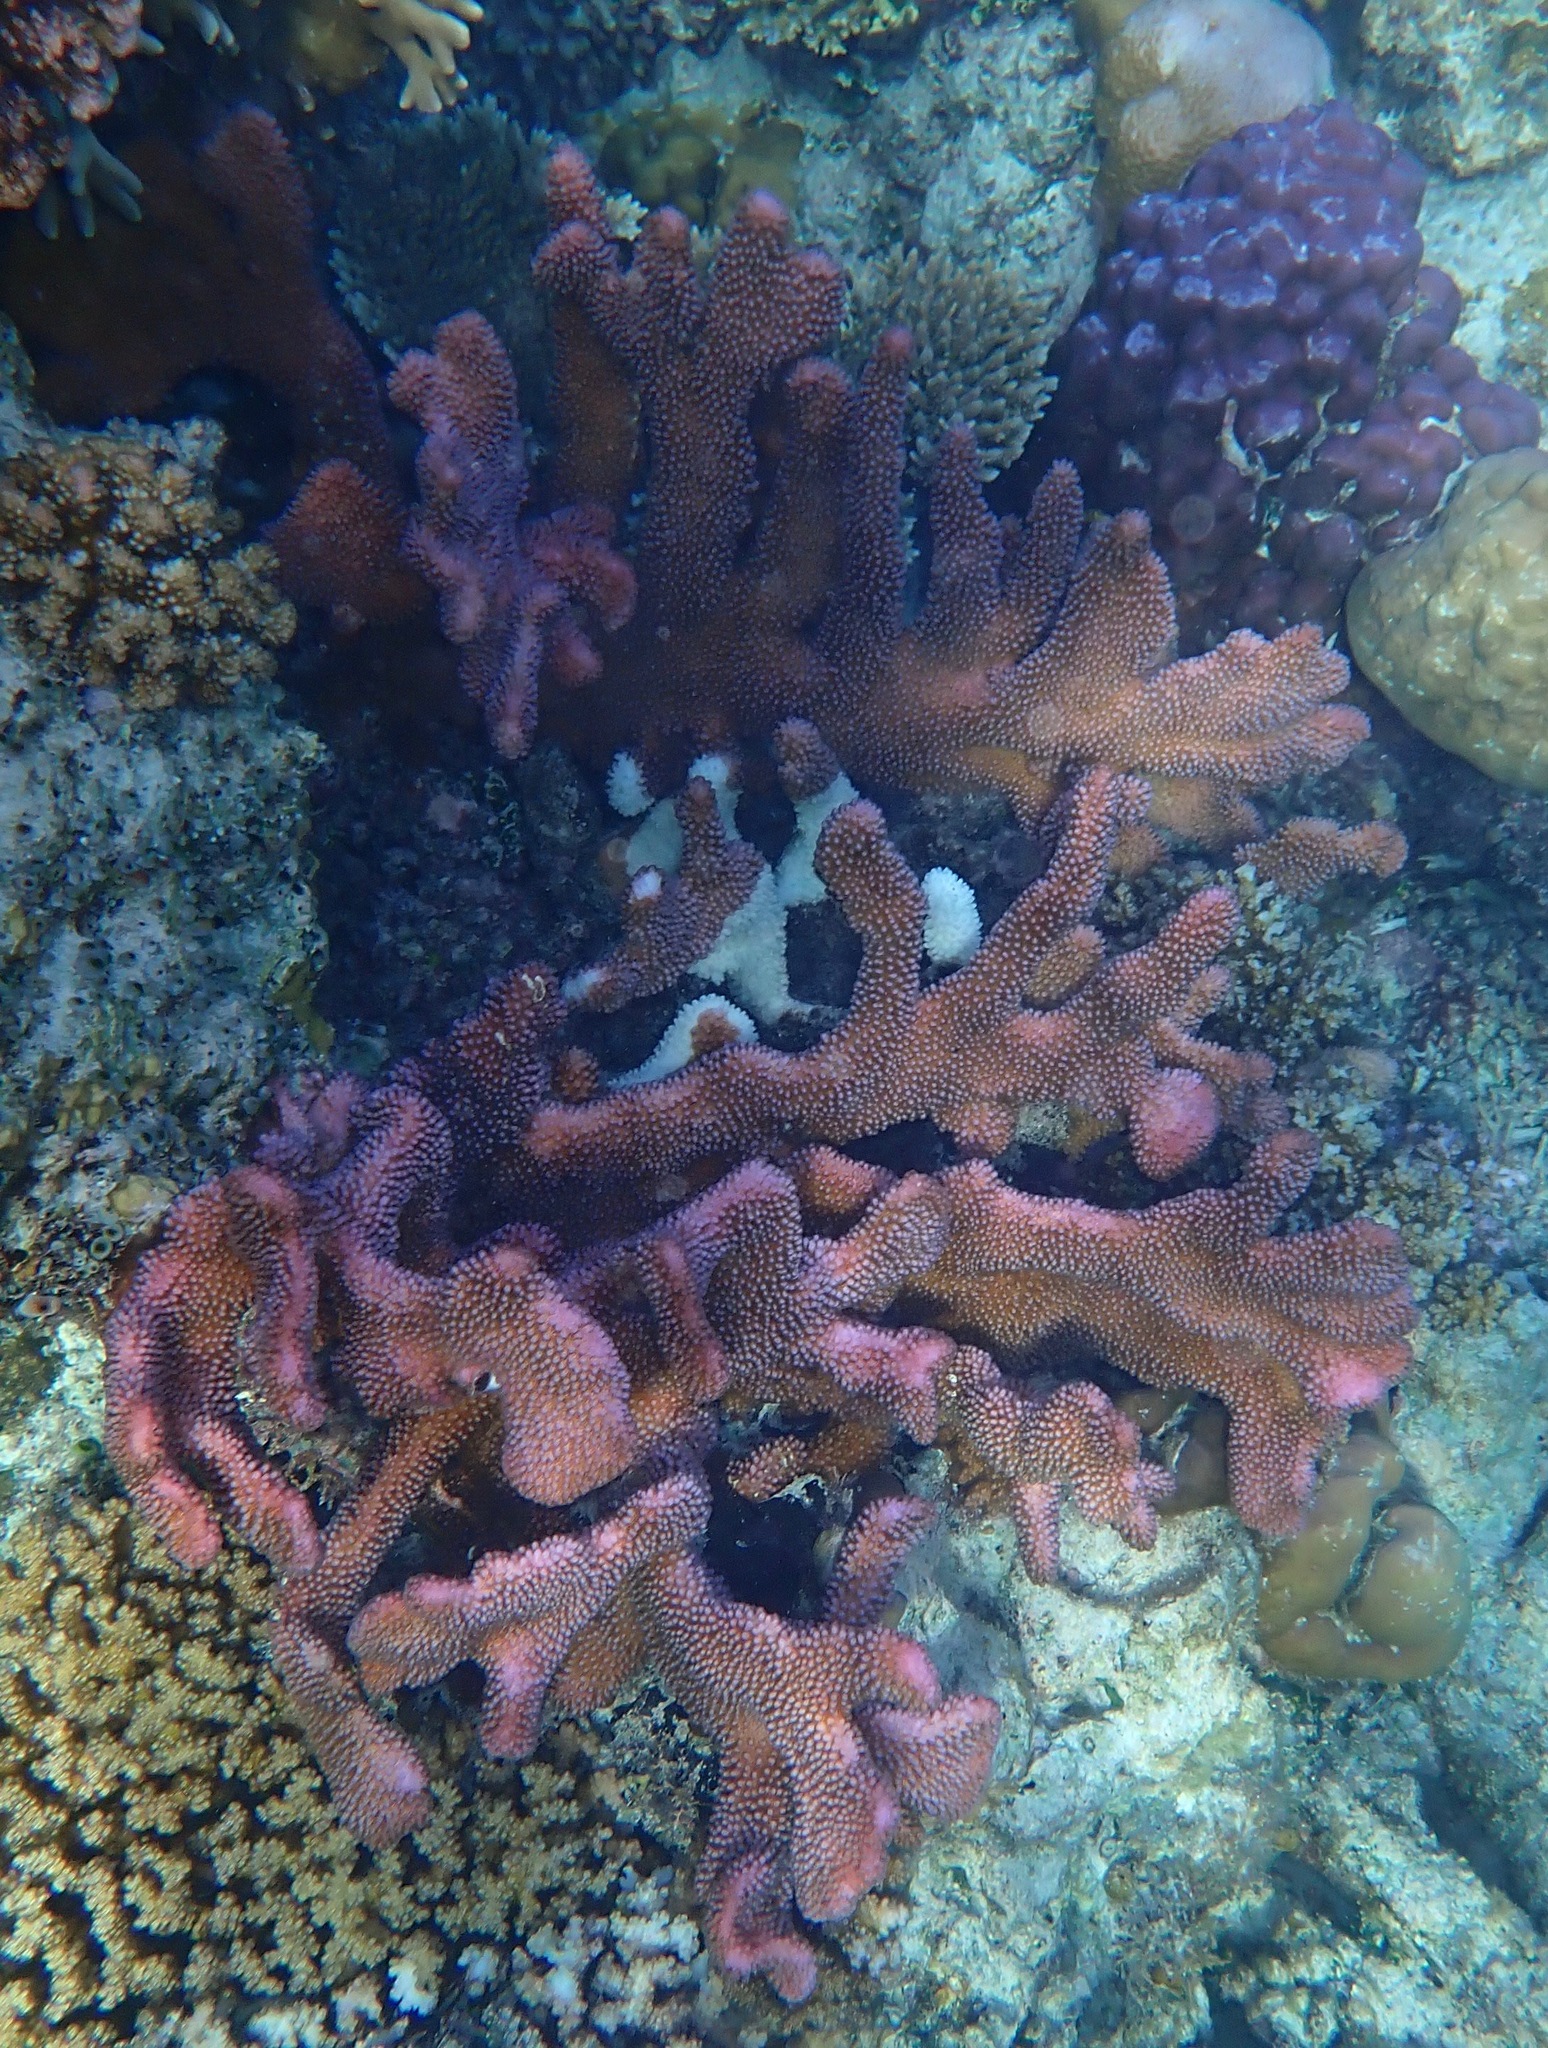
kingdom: Animalia
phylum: Cnidaria
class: Anthozoa
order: Scleractinia
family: Pocilloporidae
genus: Pocillopora
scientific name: Pocillopora grandis
